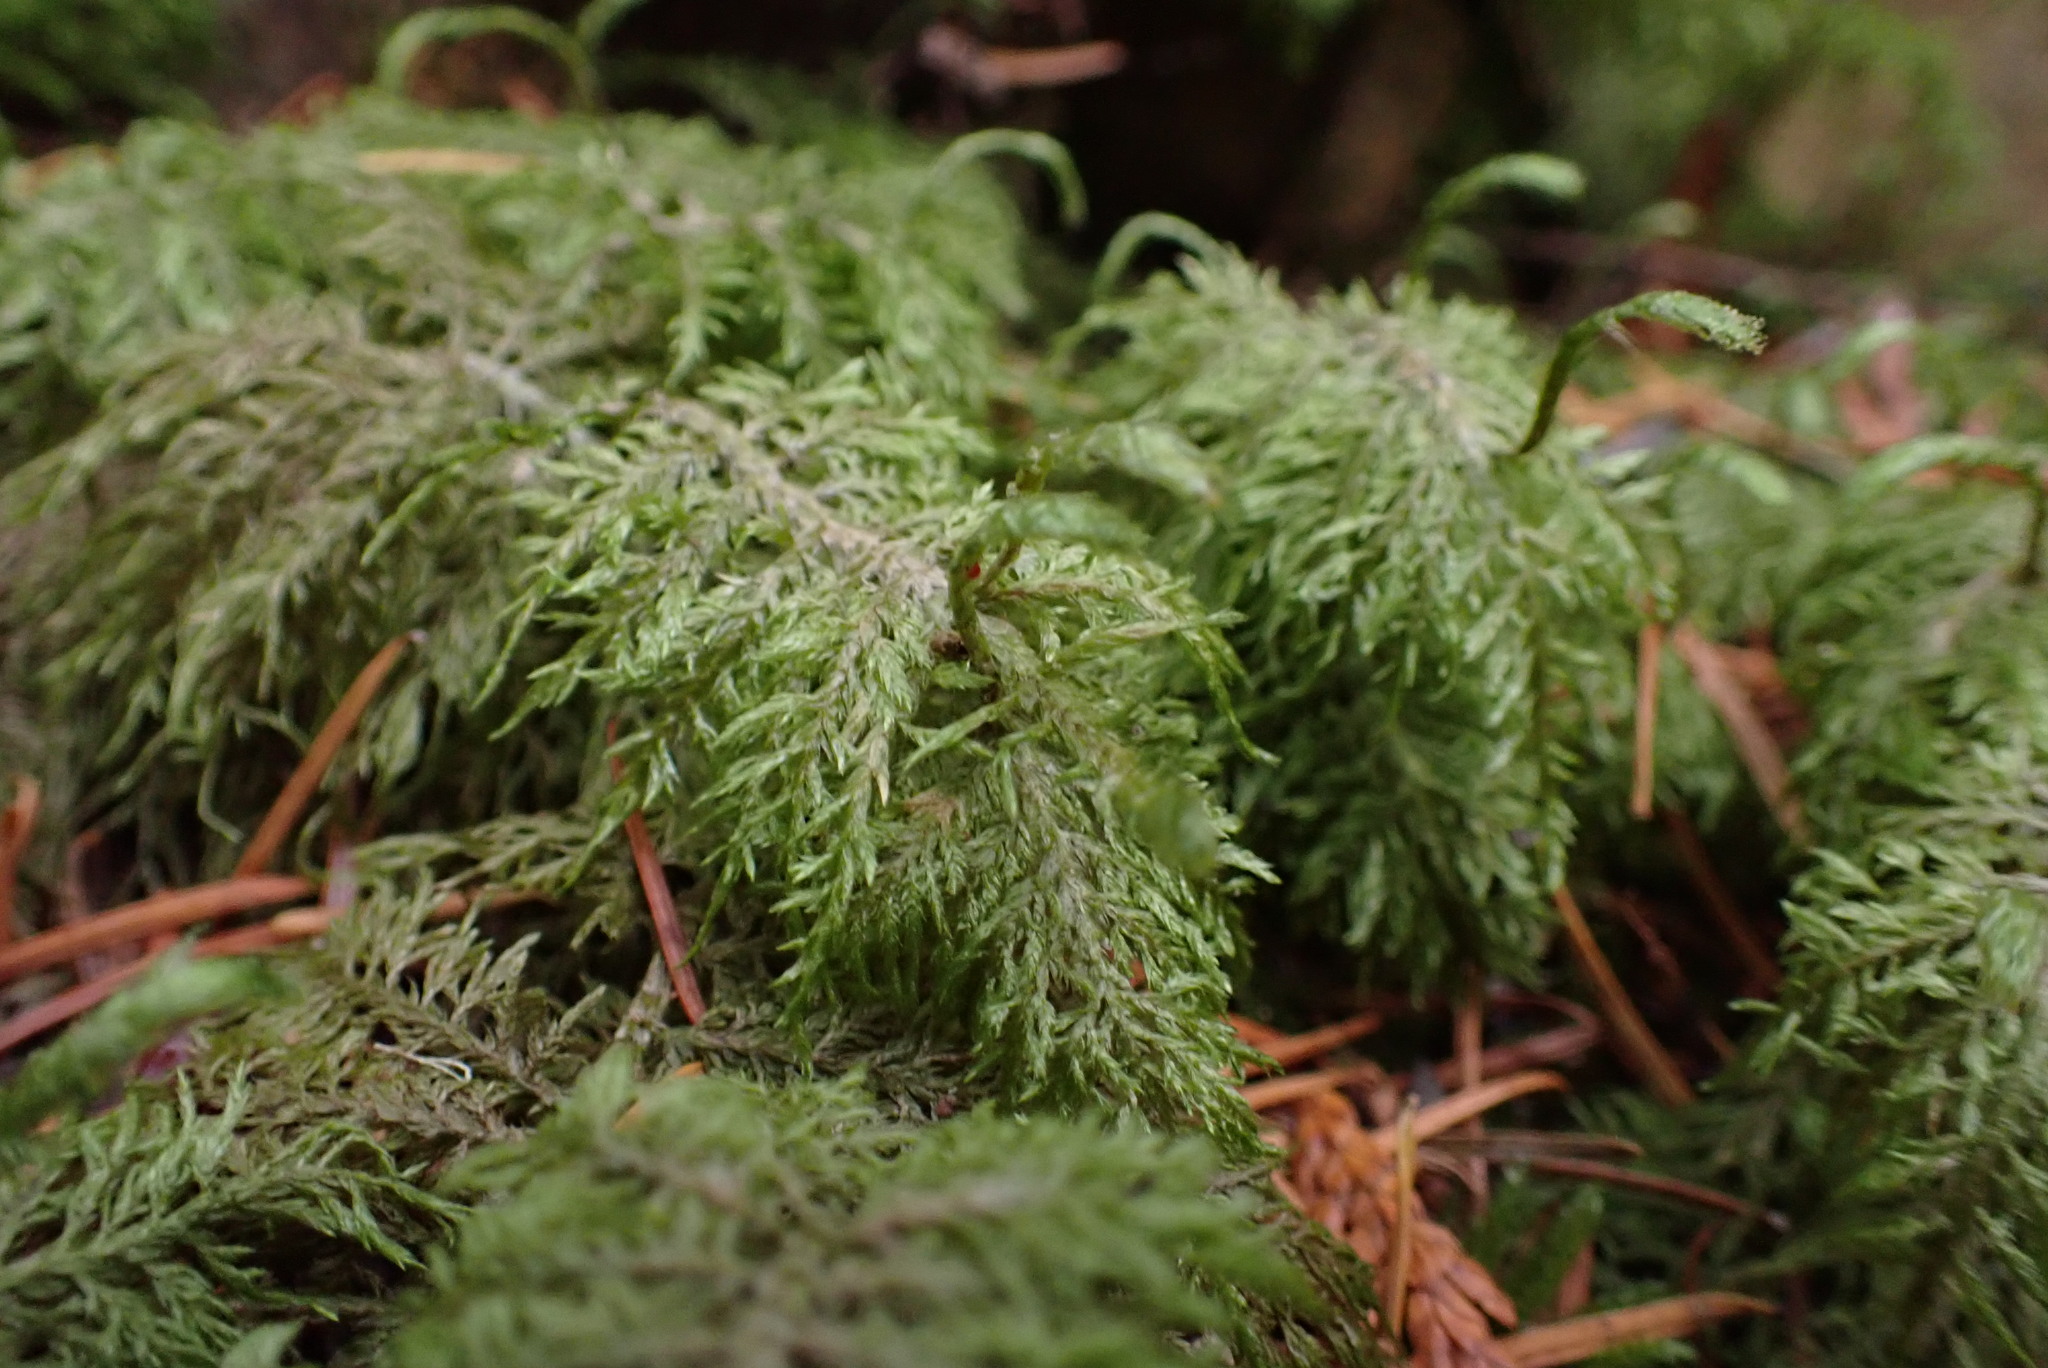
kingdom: Plantae
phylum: Bryophyta
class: Bryopsida
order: Hypnales
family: Hylocomiaceae
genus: Hylocomium
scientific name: Hylocomium splendens
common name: Stairstep moss
